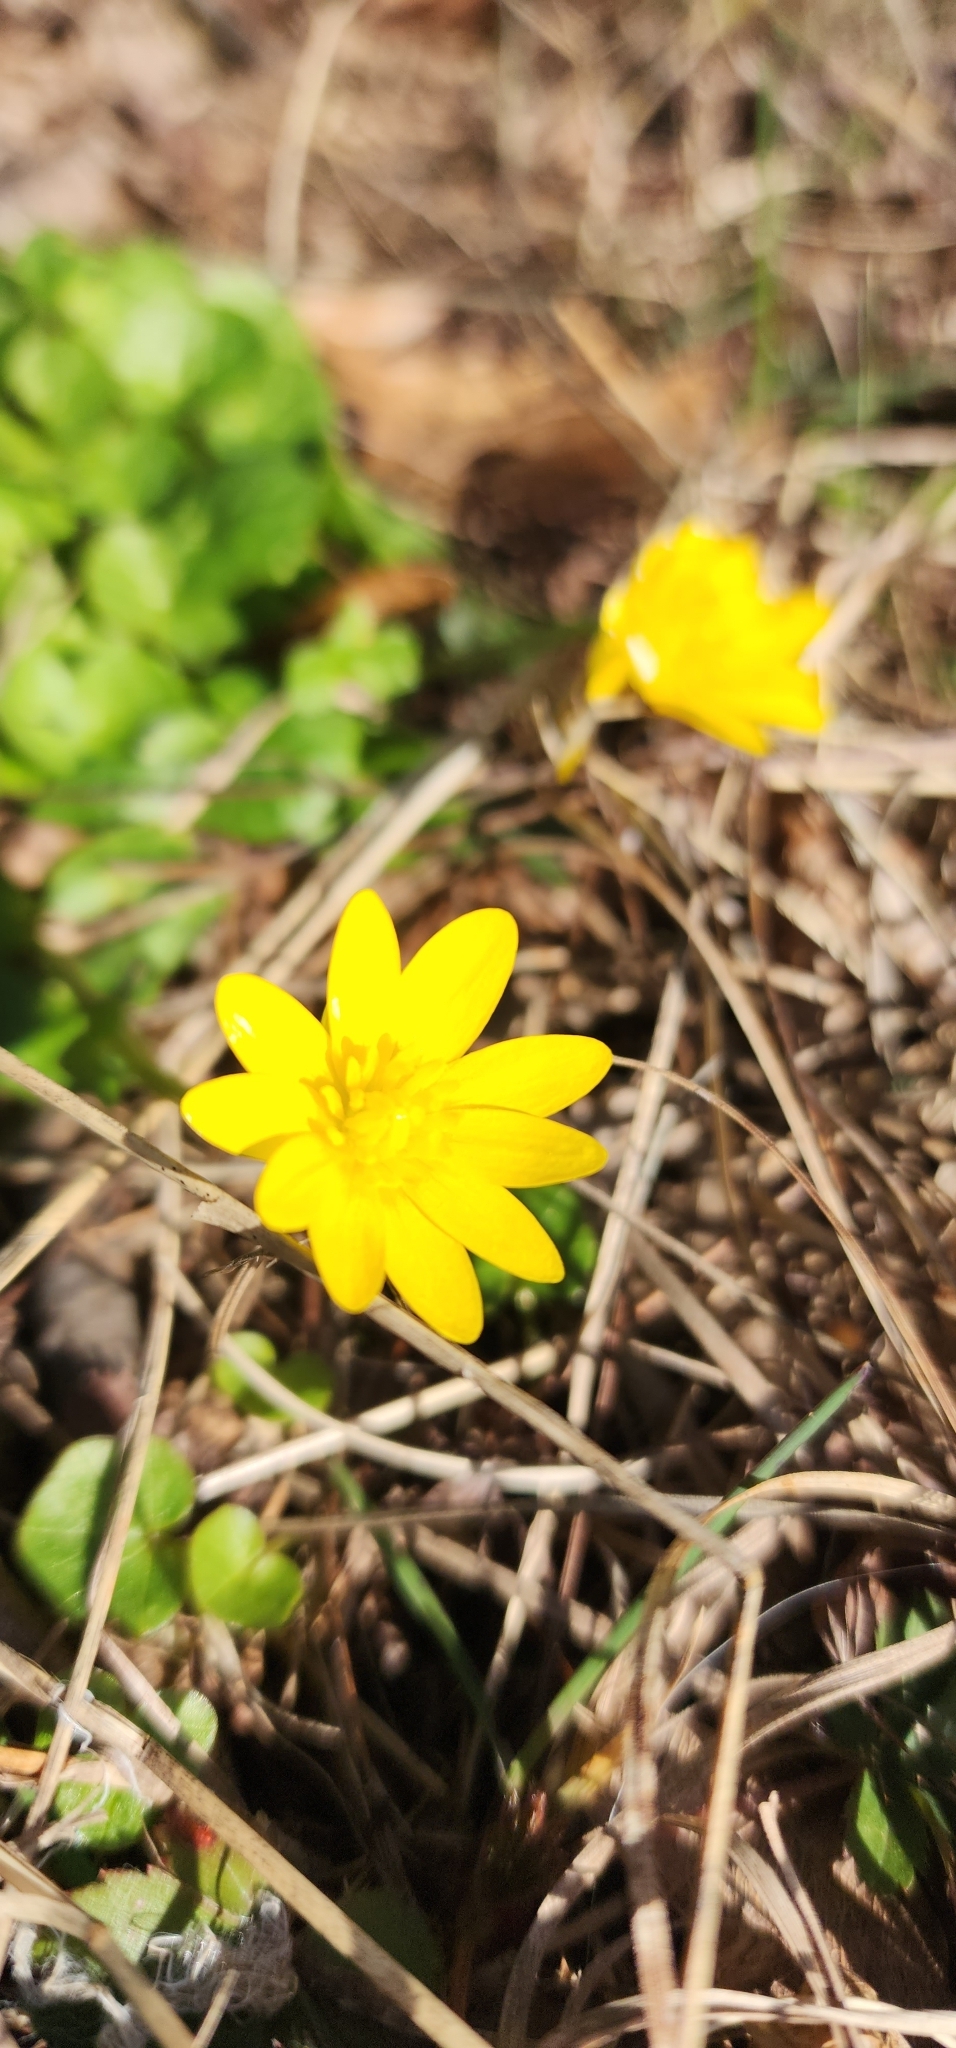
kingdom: Plantae
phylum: Tracheophyta
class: Magnoliopsida
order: Ranunculales
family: Ranunculaceae
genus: Ficaria
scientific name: Ficaria verna
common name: Lesser celandine
